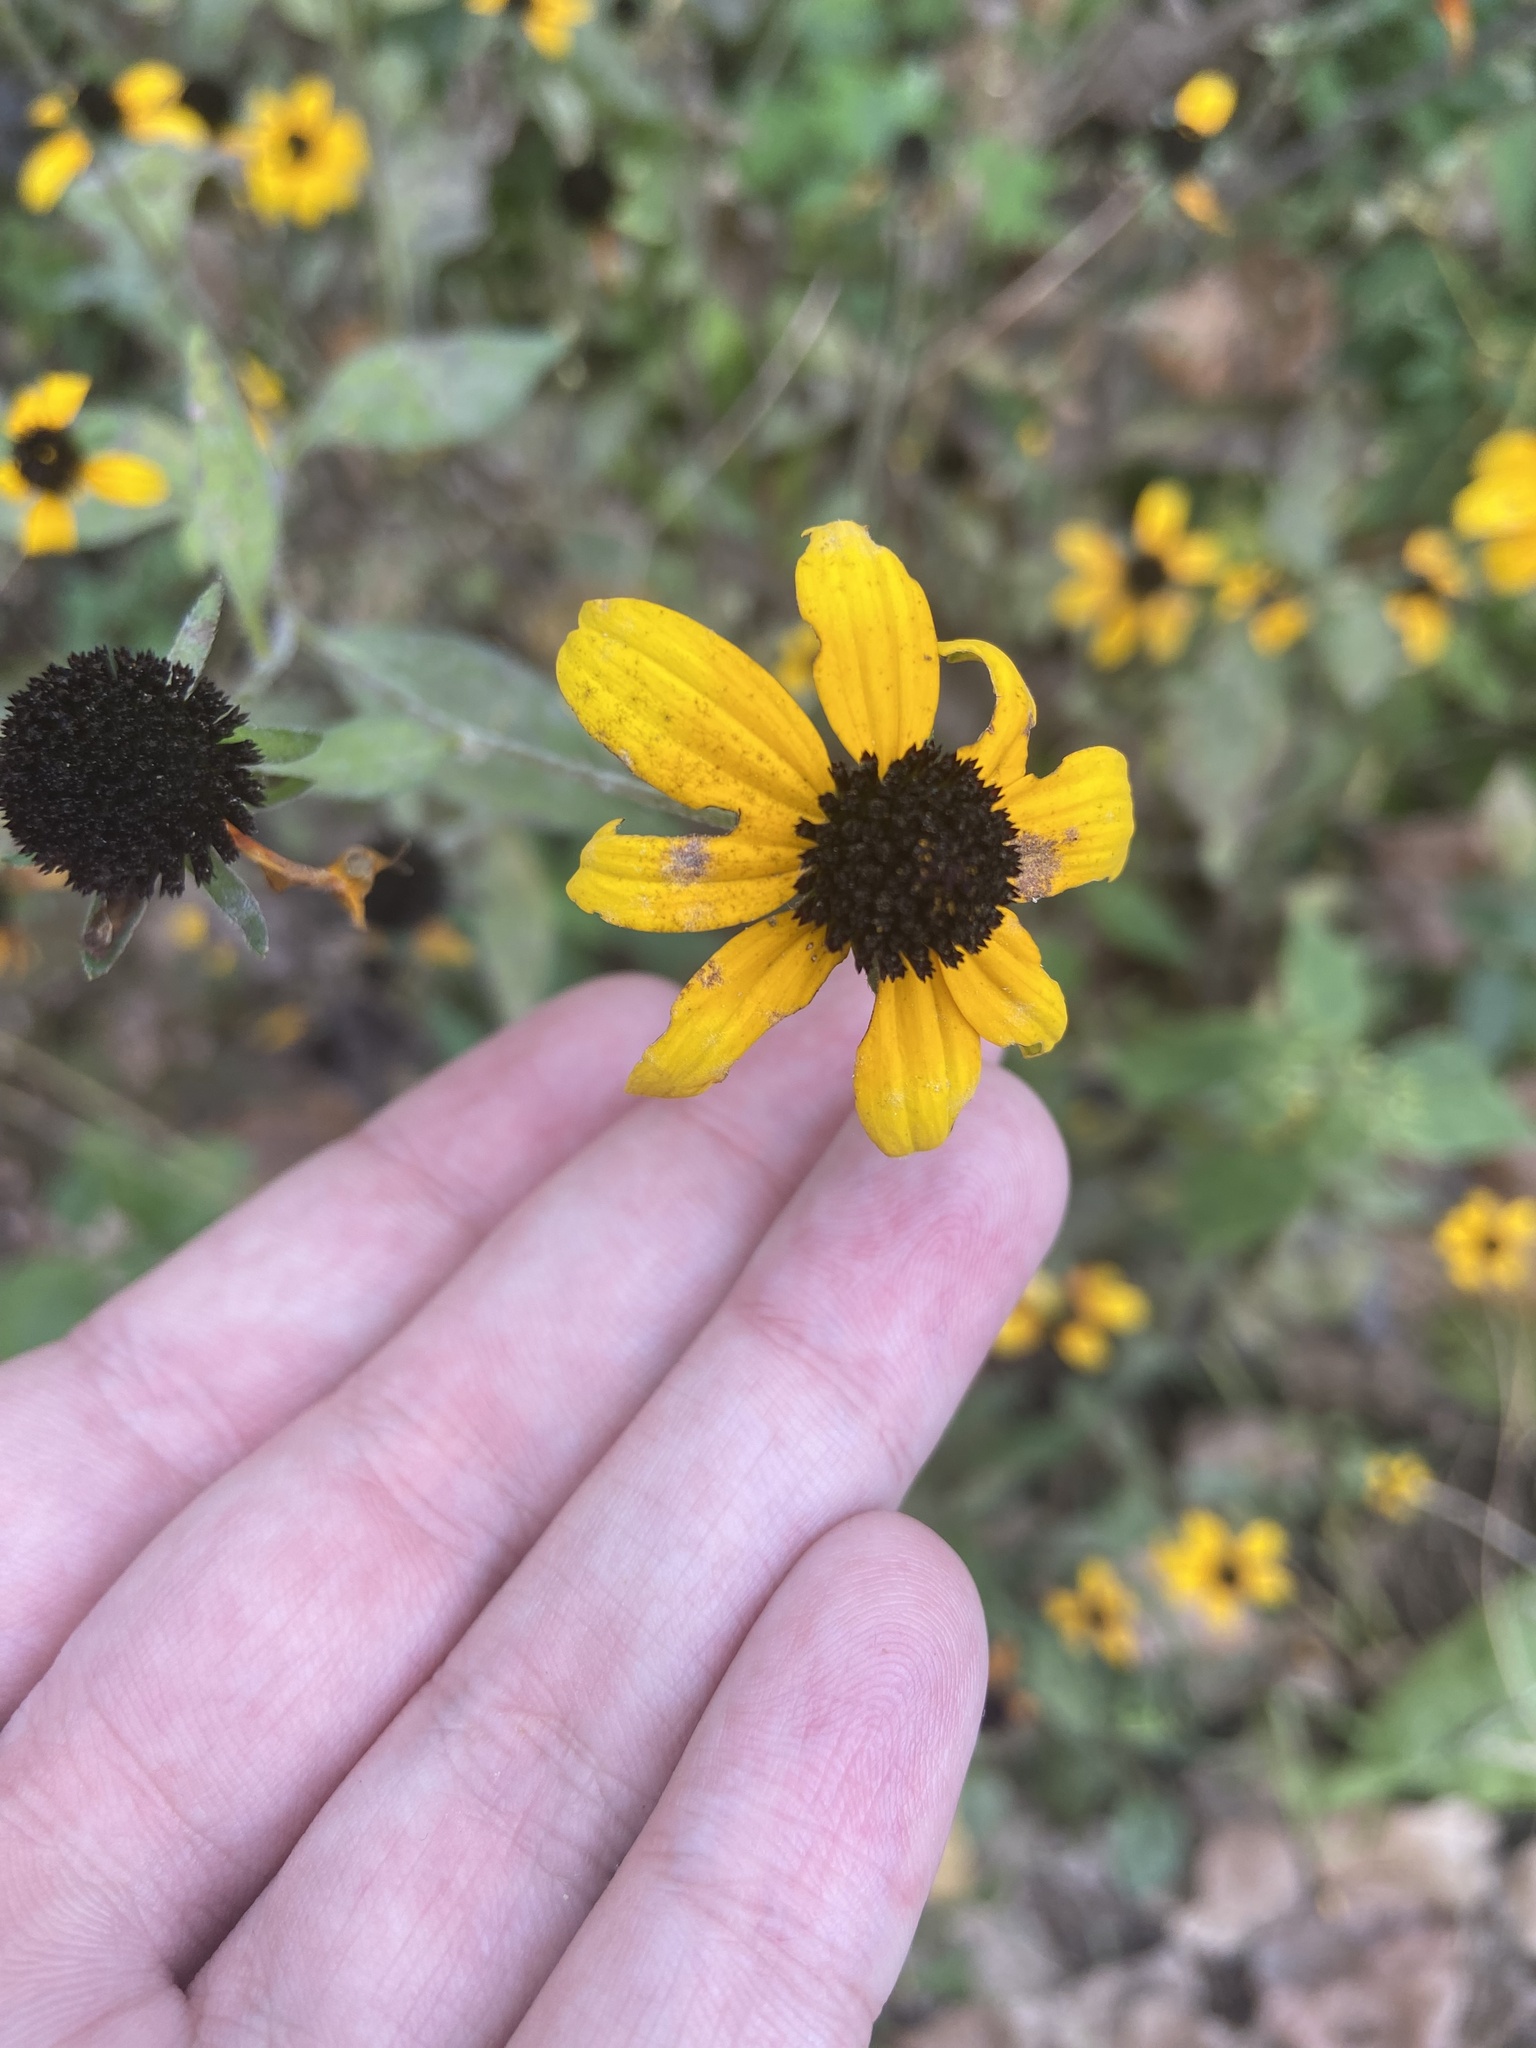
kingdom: Plantae
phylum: Tracheophyta
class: Magnoliopsida
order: Asterales
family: Asteraceae
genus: Rudbeckia
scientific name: Rudbeckia triloba
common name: Thin-leaved coneflower
